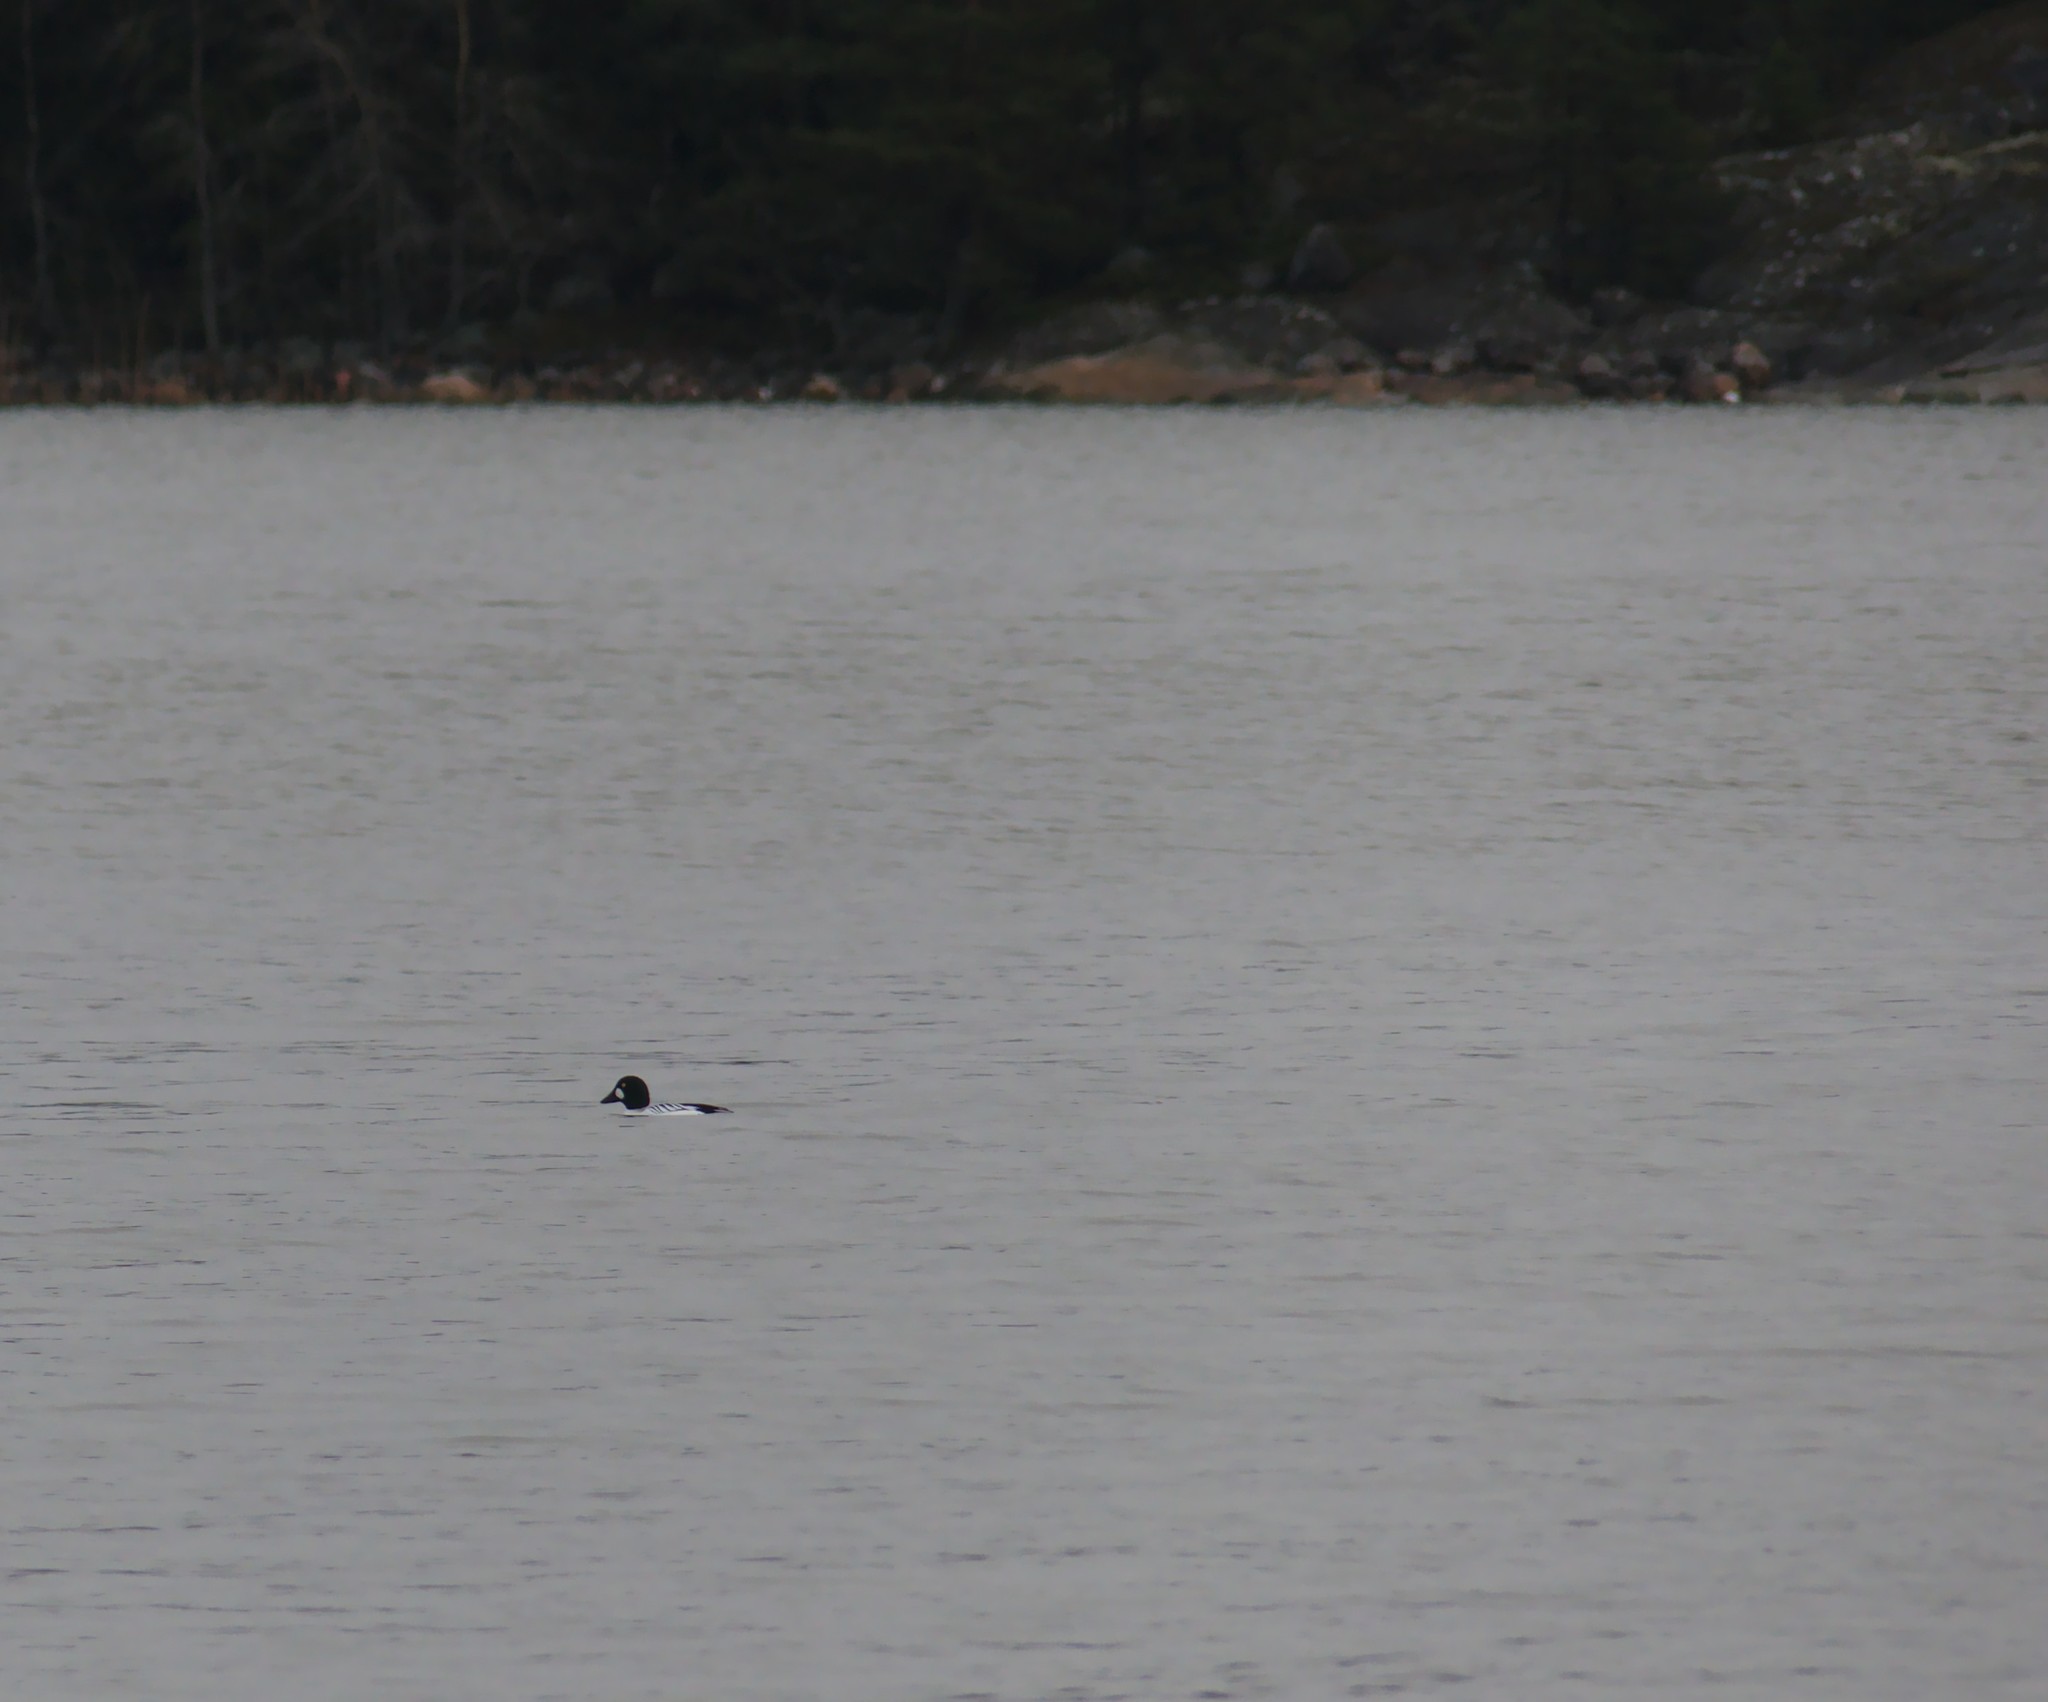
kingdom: Animalia
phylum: Chordata
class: Aves
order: Anseriformes
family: Anatidae
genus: Bucephala
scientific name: Bucephala clangula
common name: Common goldeneye
